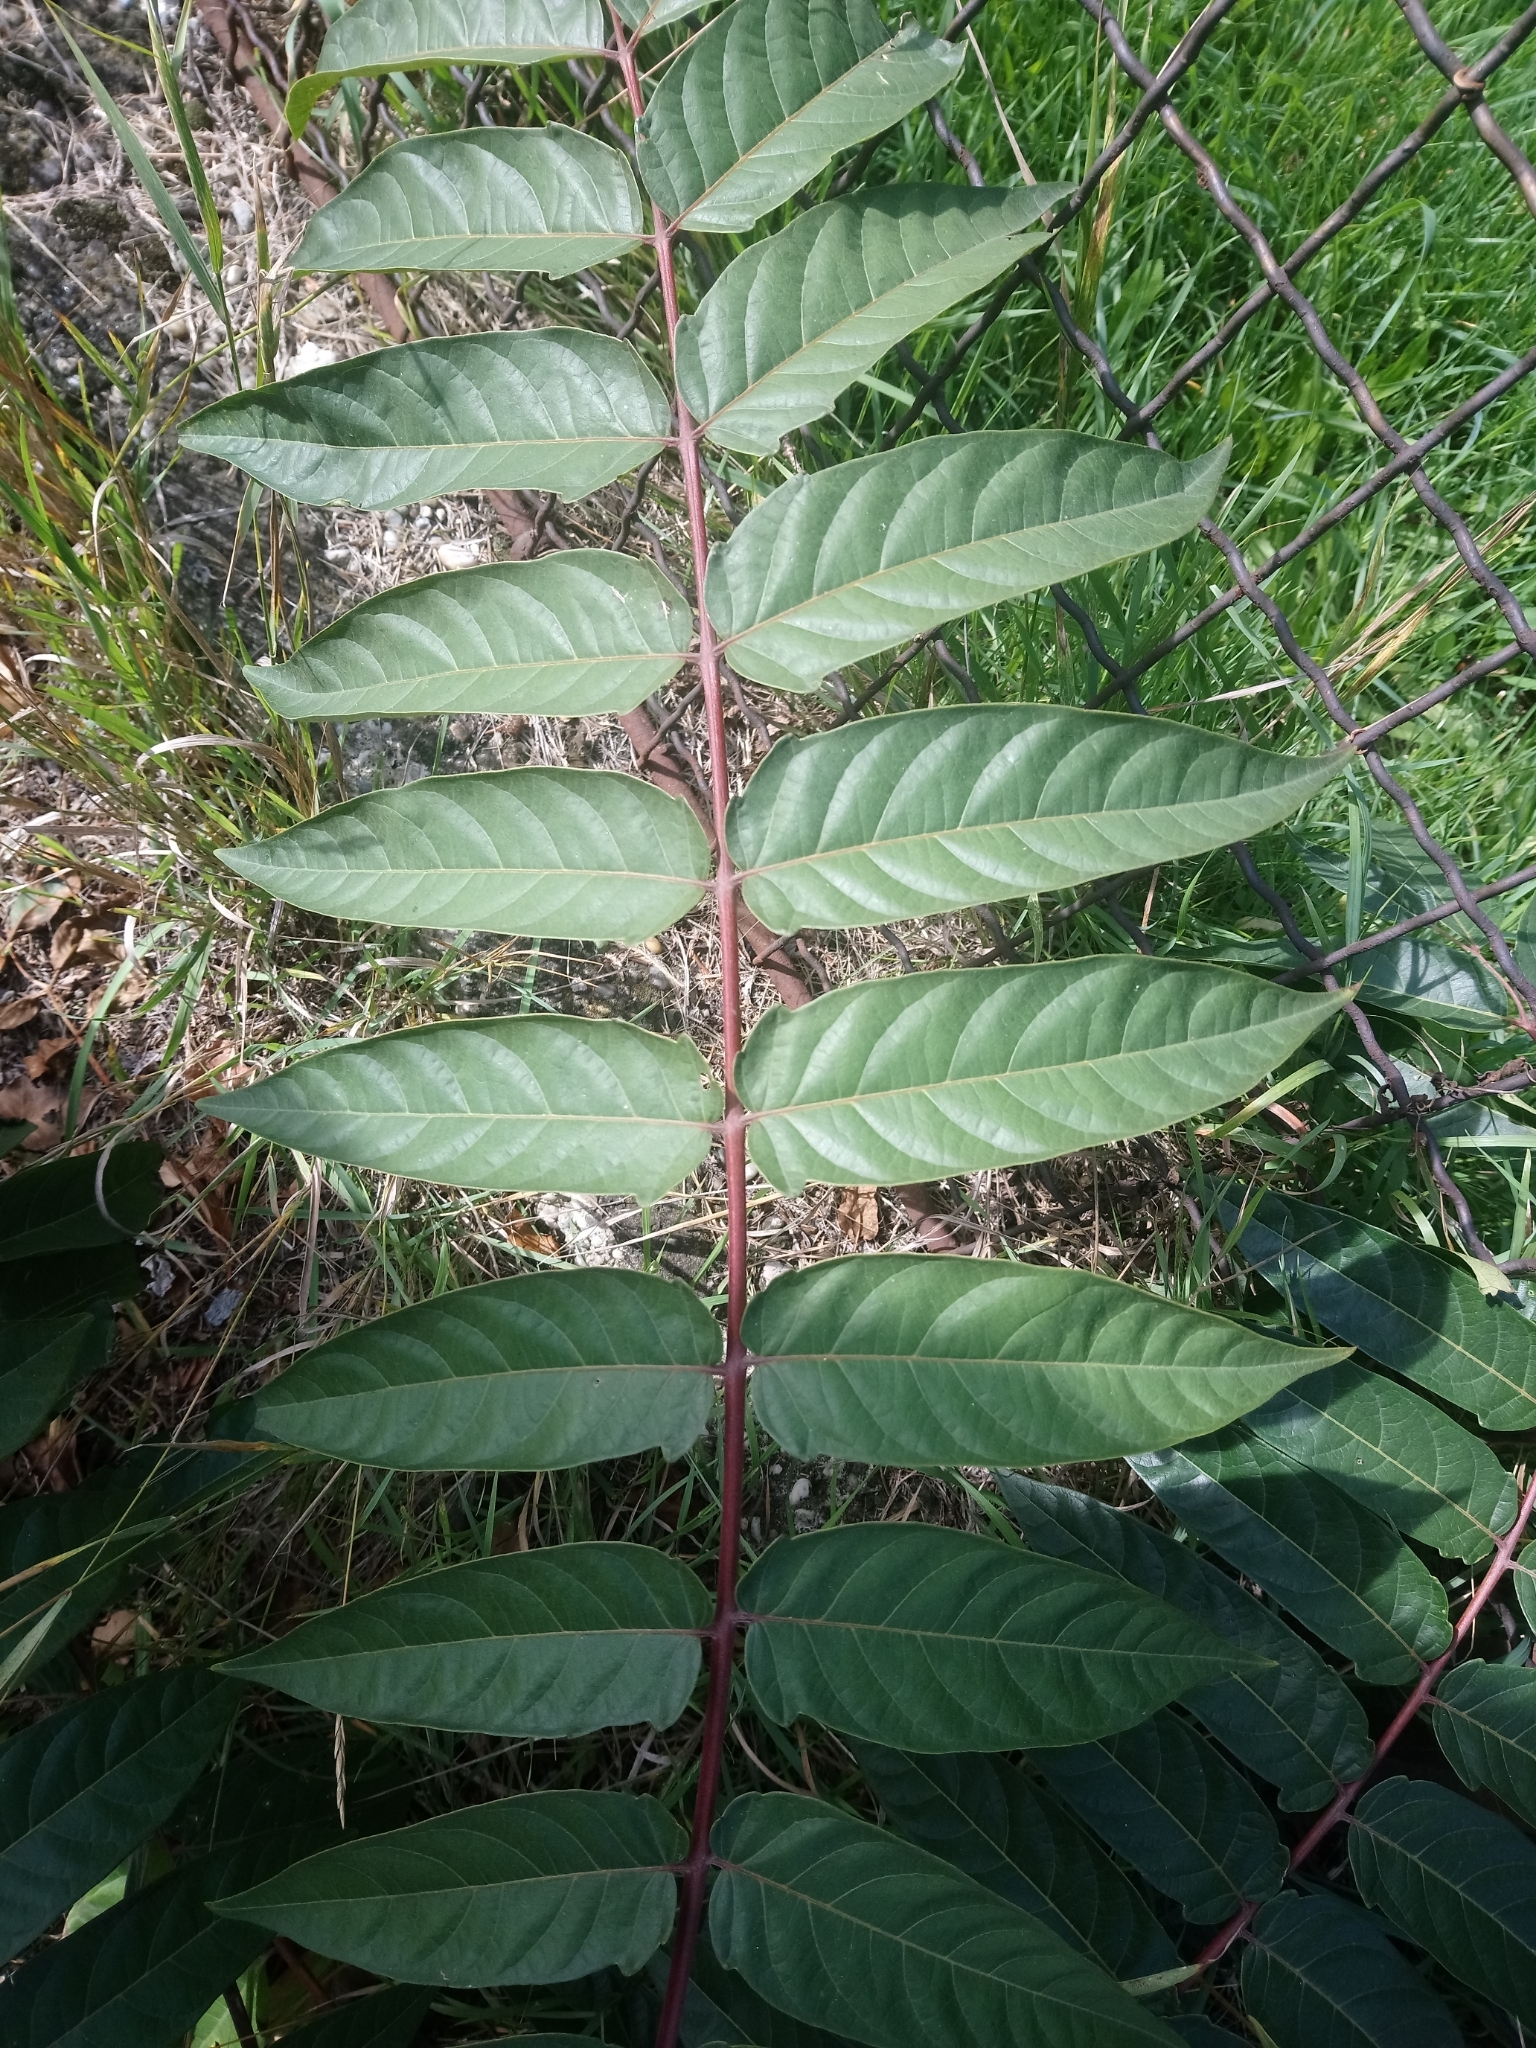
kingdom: Plantae
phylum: Tracheophyta
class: Magnoliopsida
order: Sapindales
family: Simaroubaceae
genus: Ailanthus
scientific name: Ailanthus altissima
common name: Tree-of-heaven
